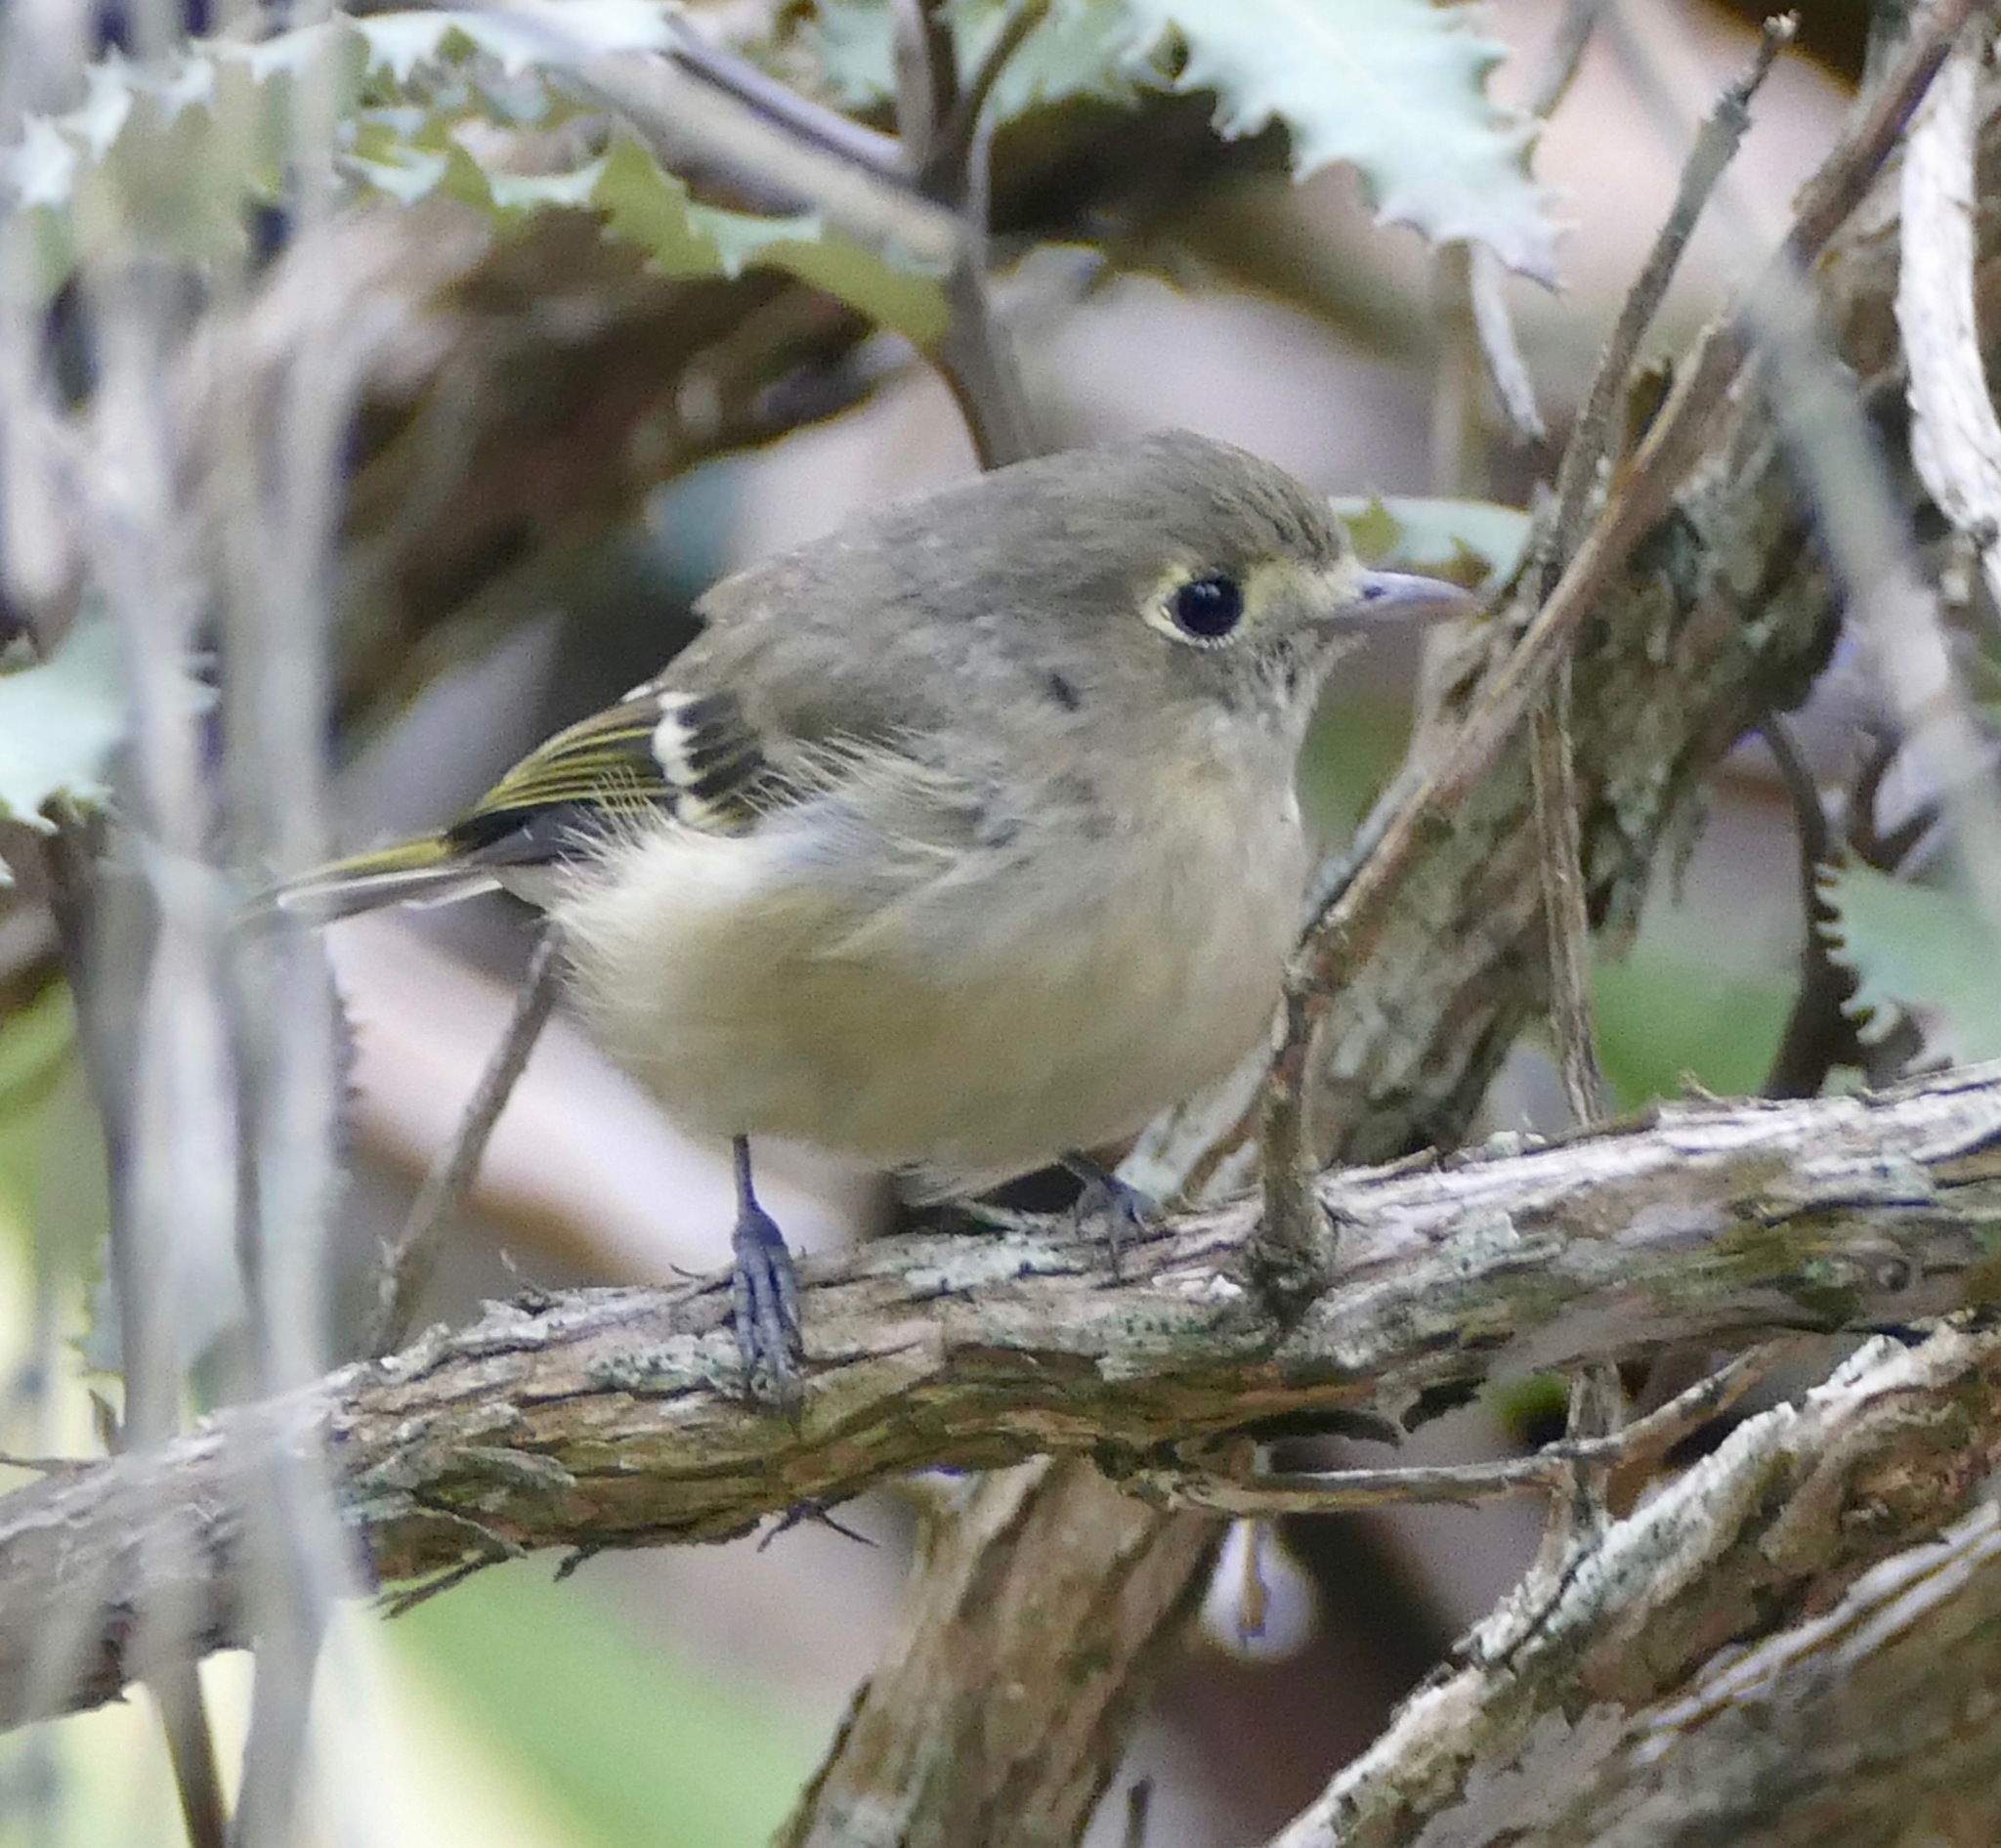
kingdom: Animalia
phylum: Chordata
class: Aves
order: Passeriformes
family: Vireonidae
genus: Vireo
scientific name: Vireo huttoni
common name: Hutton's vireo
